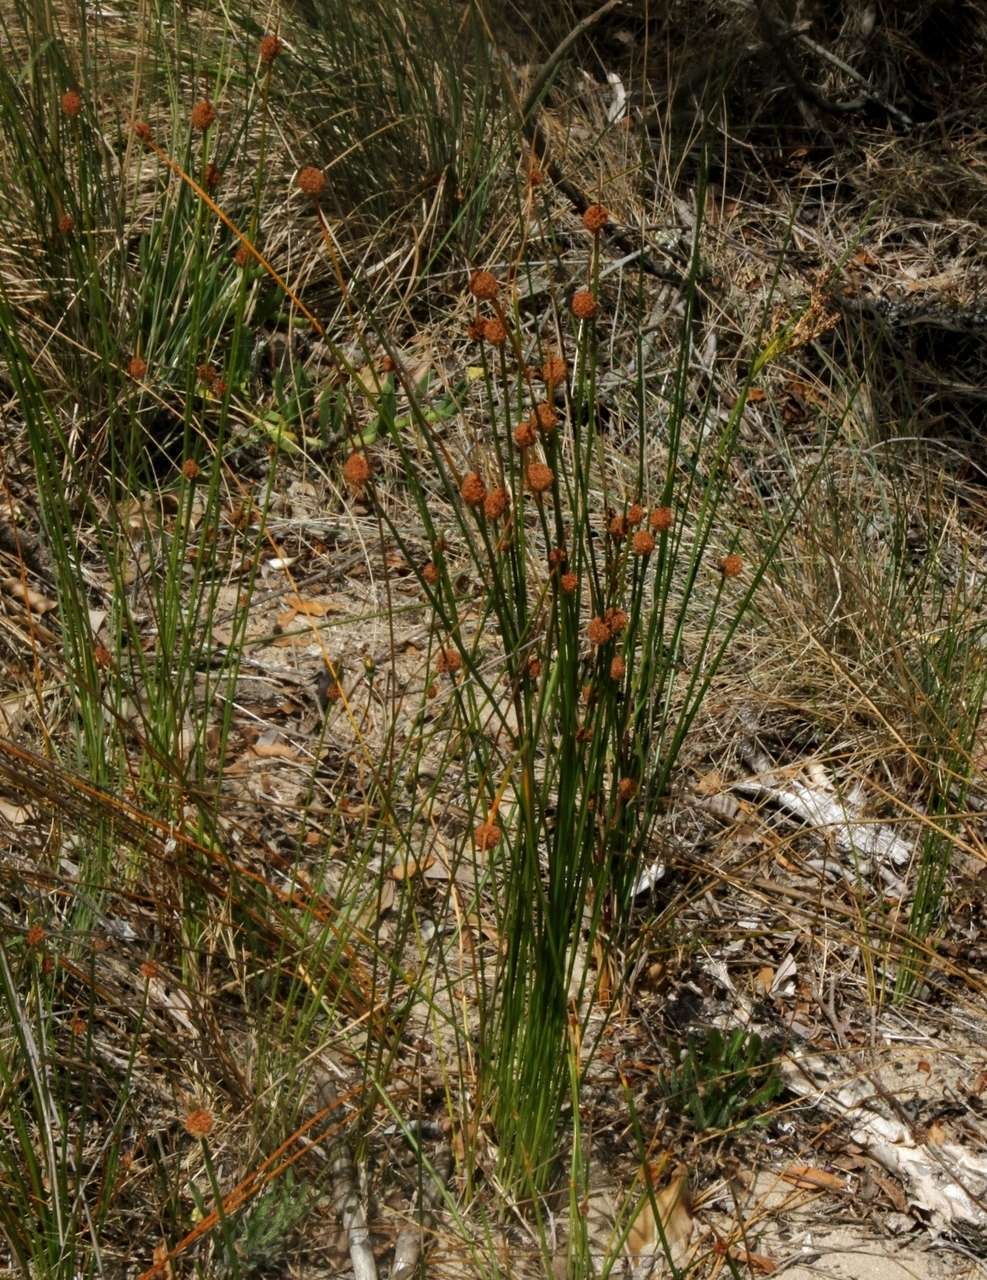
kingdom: Plantae
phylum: Tracheophyta
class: Liliopsida
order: Poales
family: Cyperaceae
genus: Ficinia
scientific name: Ficinia nodosa
